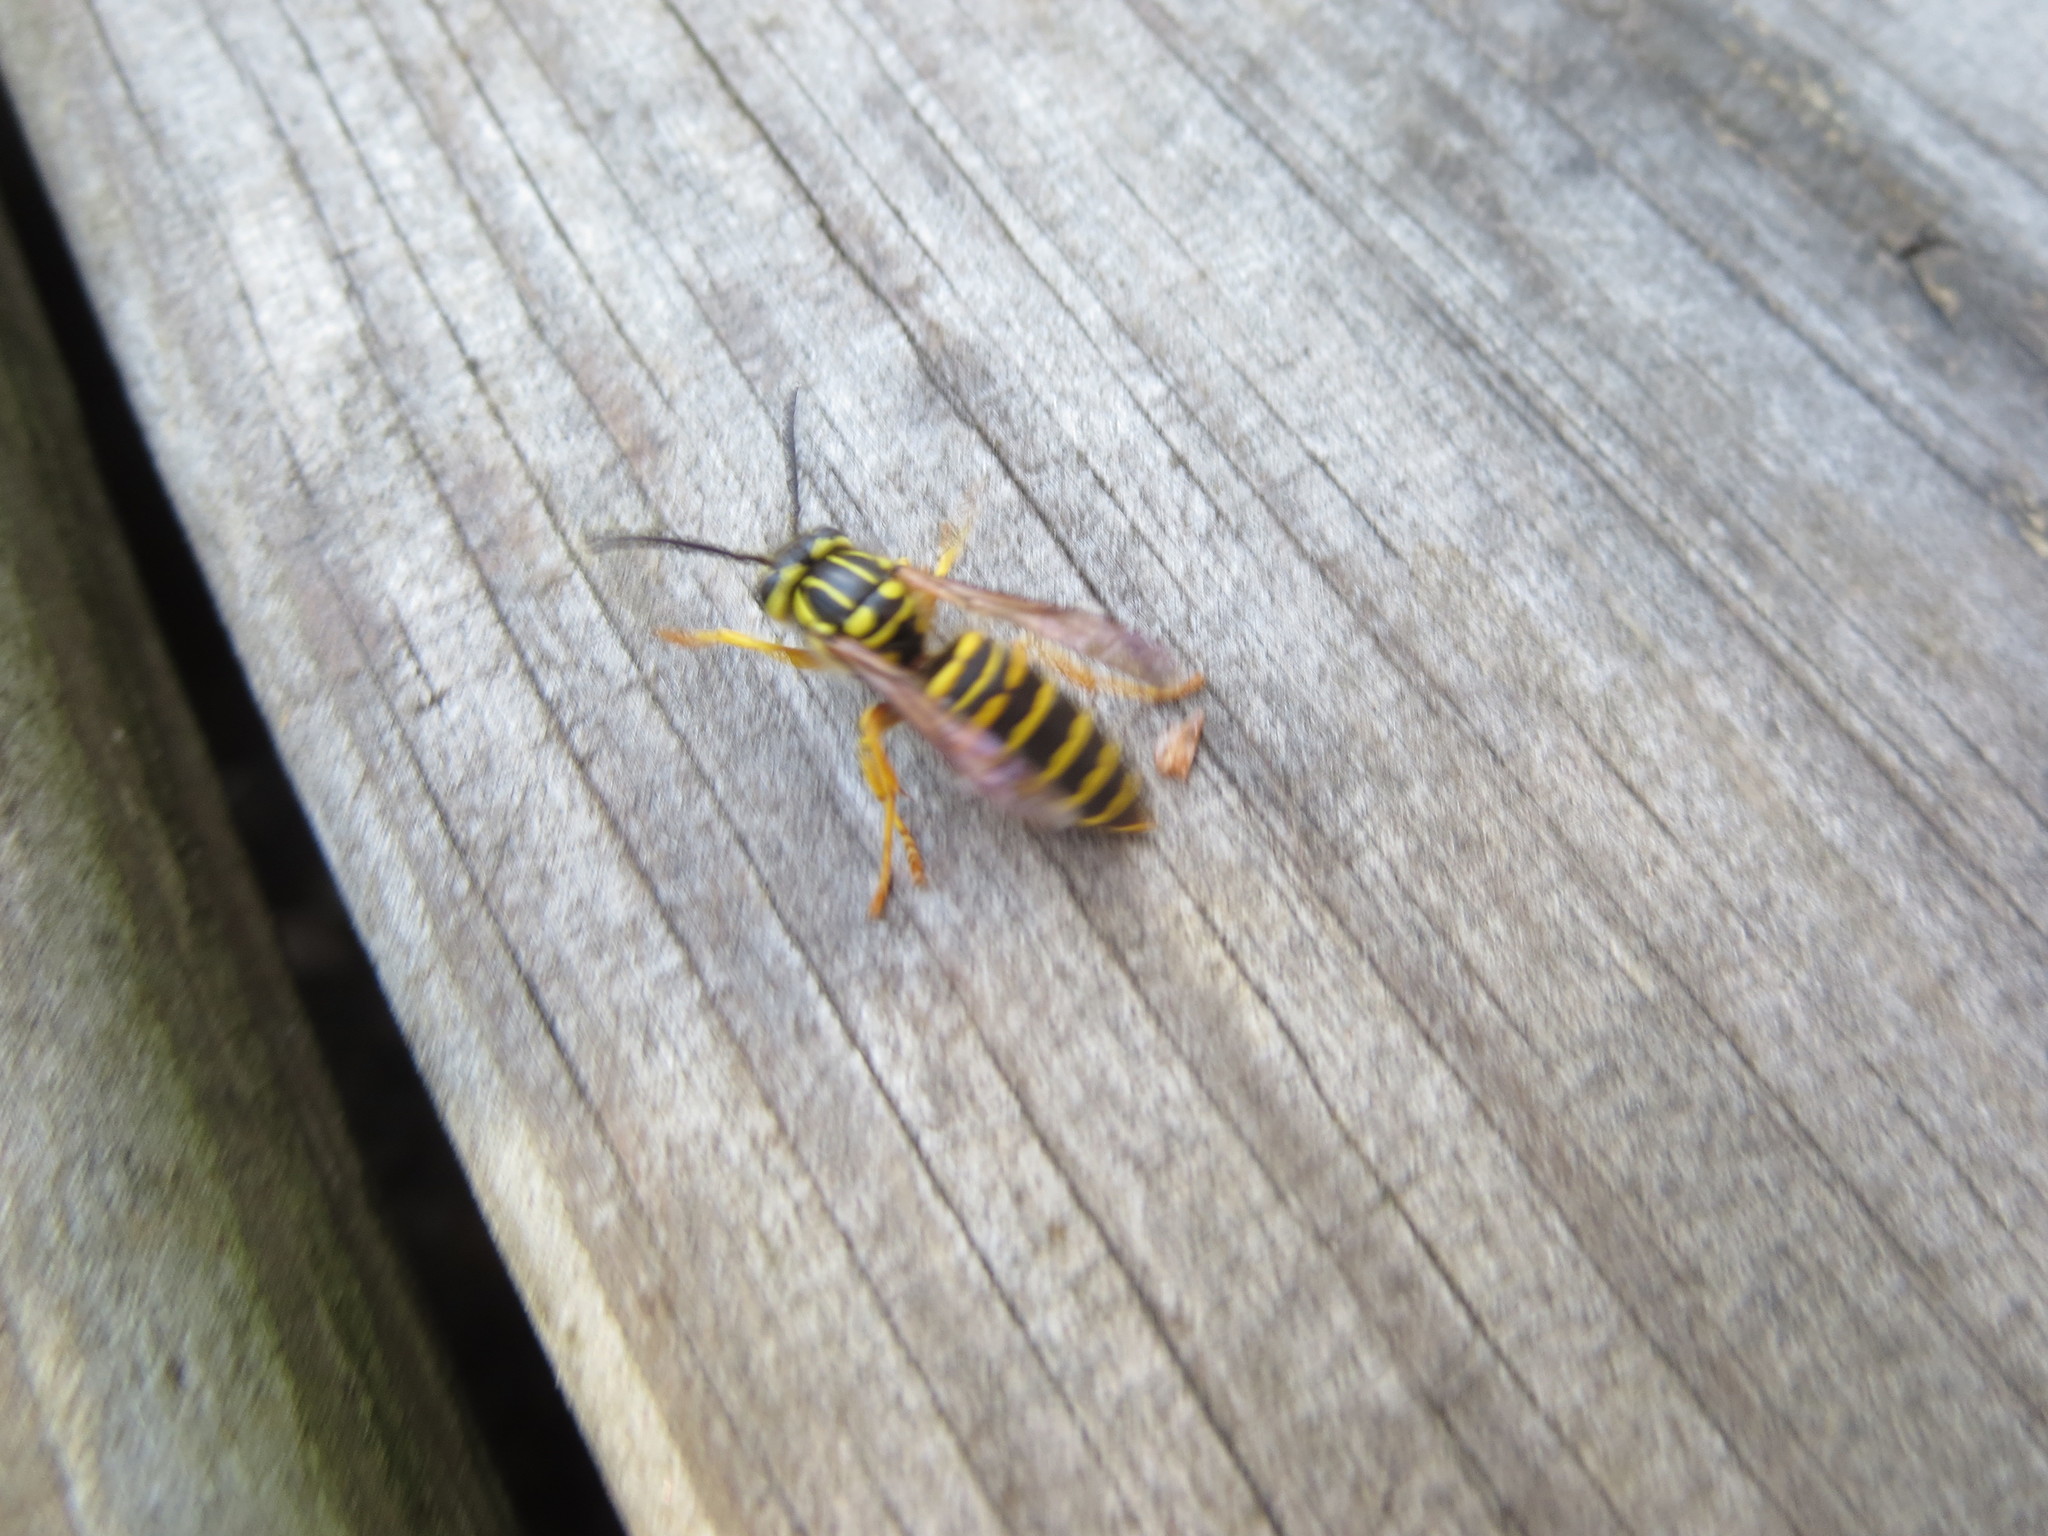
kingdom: Animalia
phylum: Arthropoda
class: Insecta
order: Hymenoptera
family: Vespidae
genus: Vespula
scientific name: Vespula squamosa
